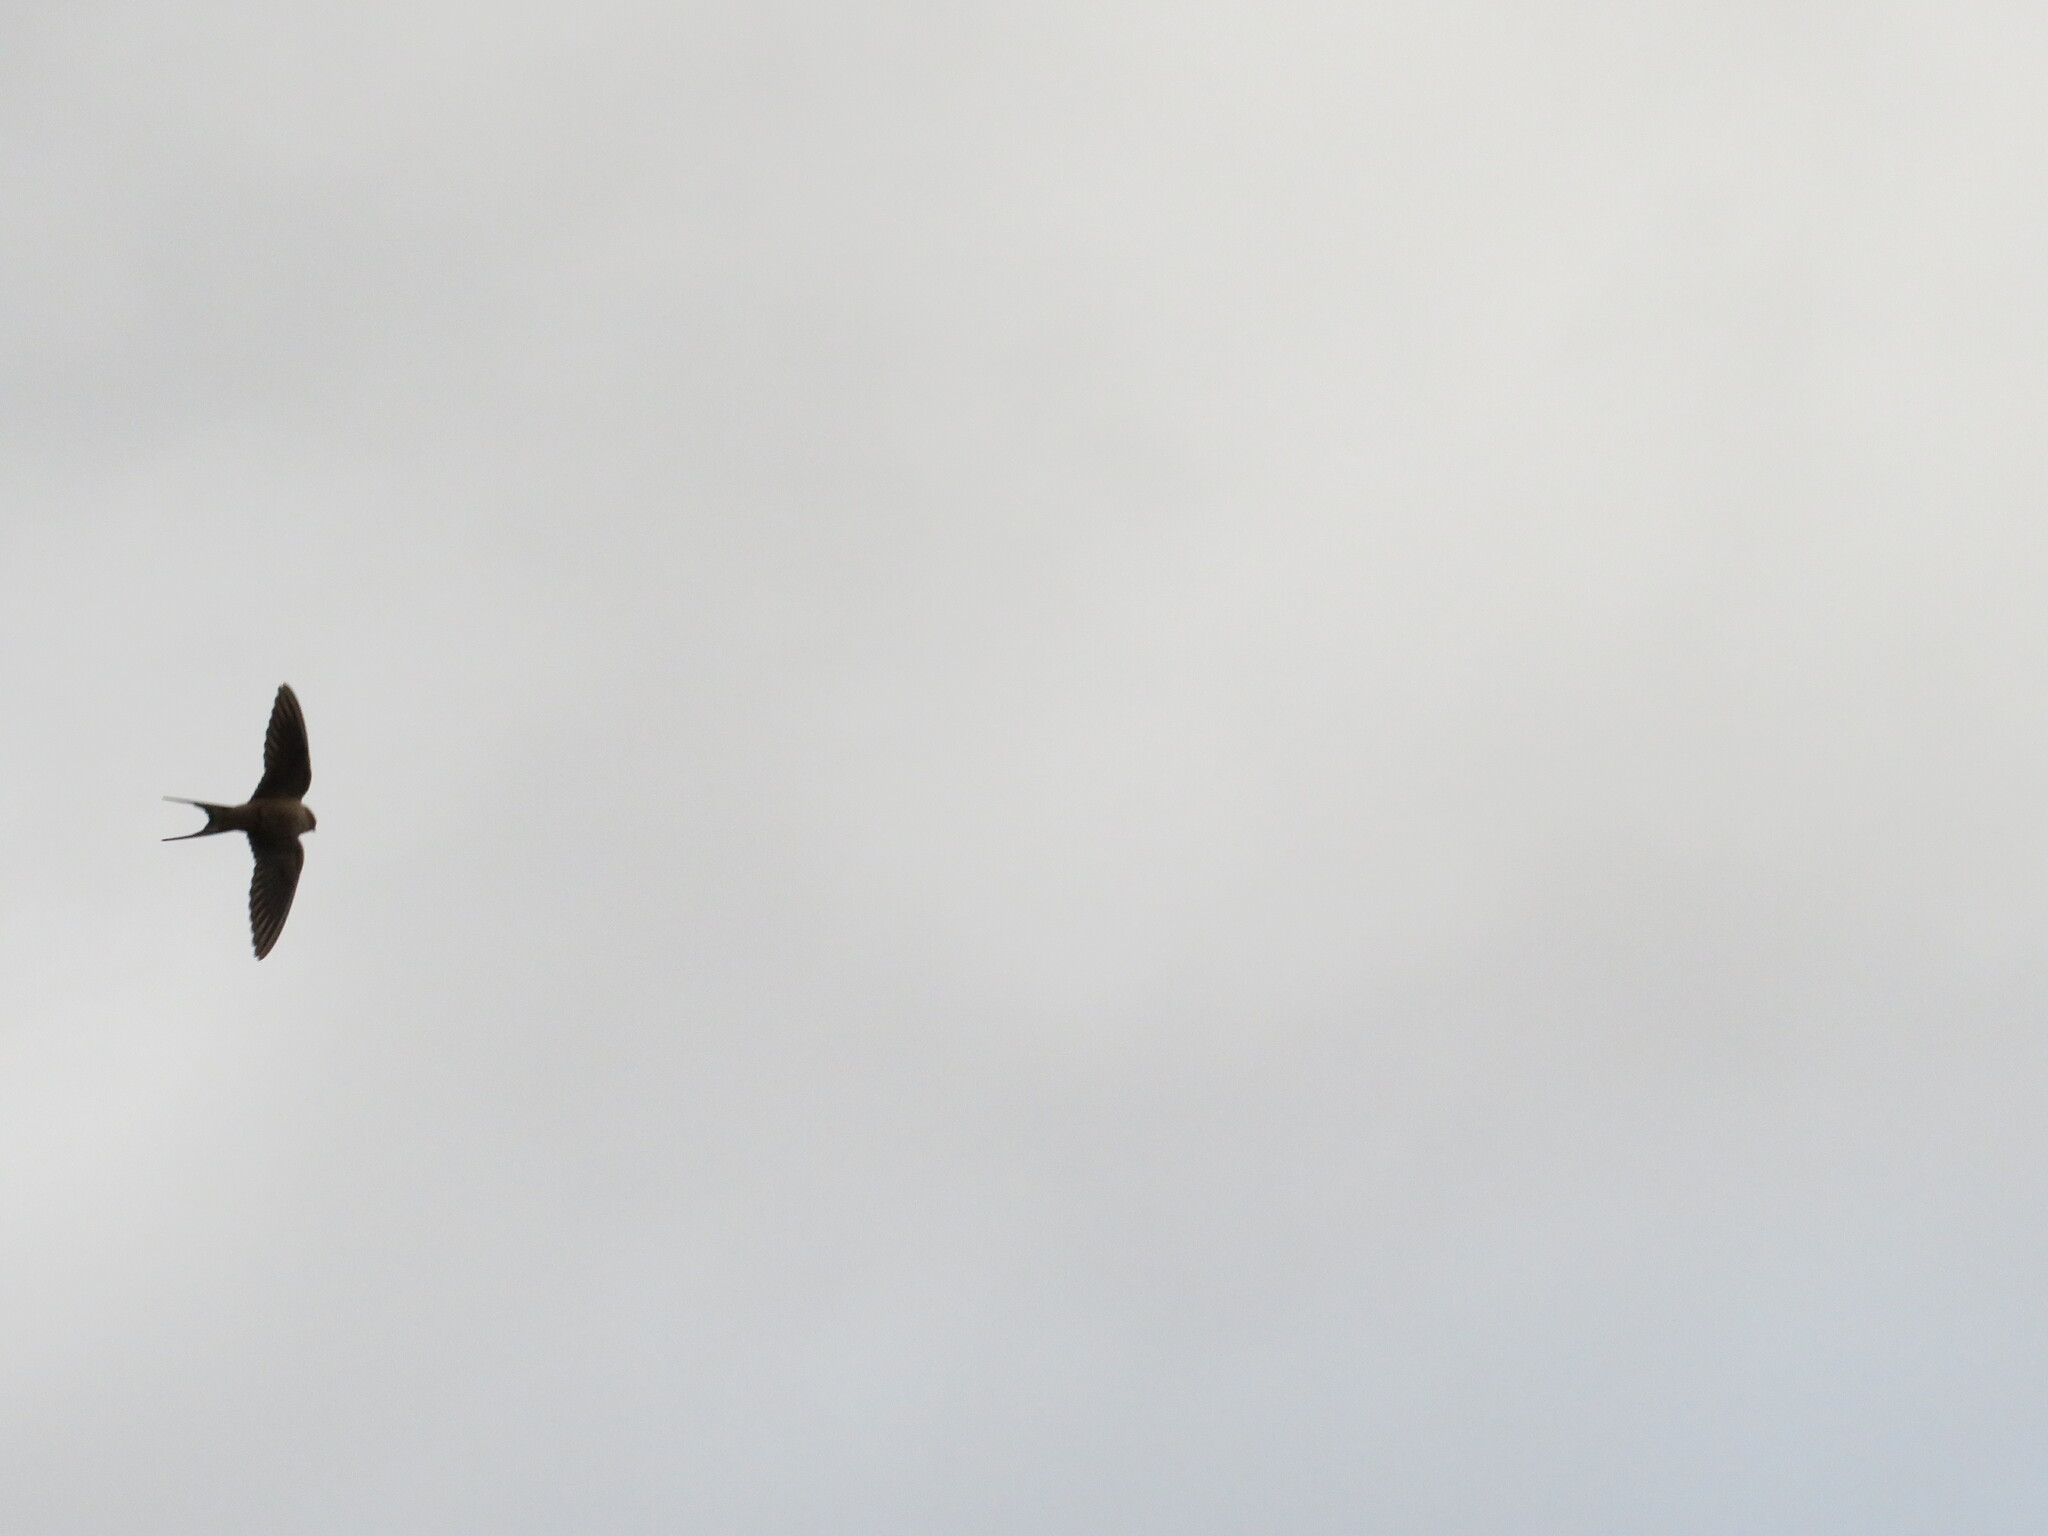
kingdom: Animalia
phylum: Chordata
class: Aves
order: Passeriformes
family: Hirundinidae
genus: Hirundo
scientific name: Hirundo rustica
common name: Barn swallow
